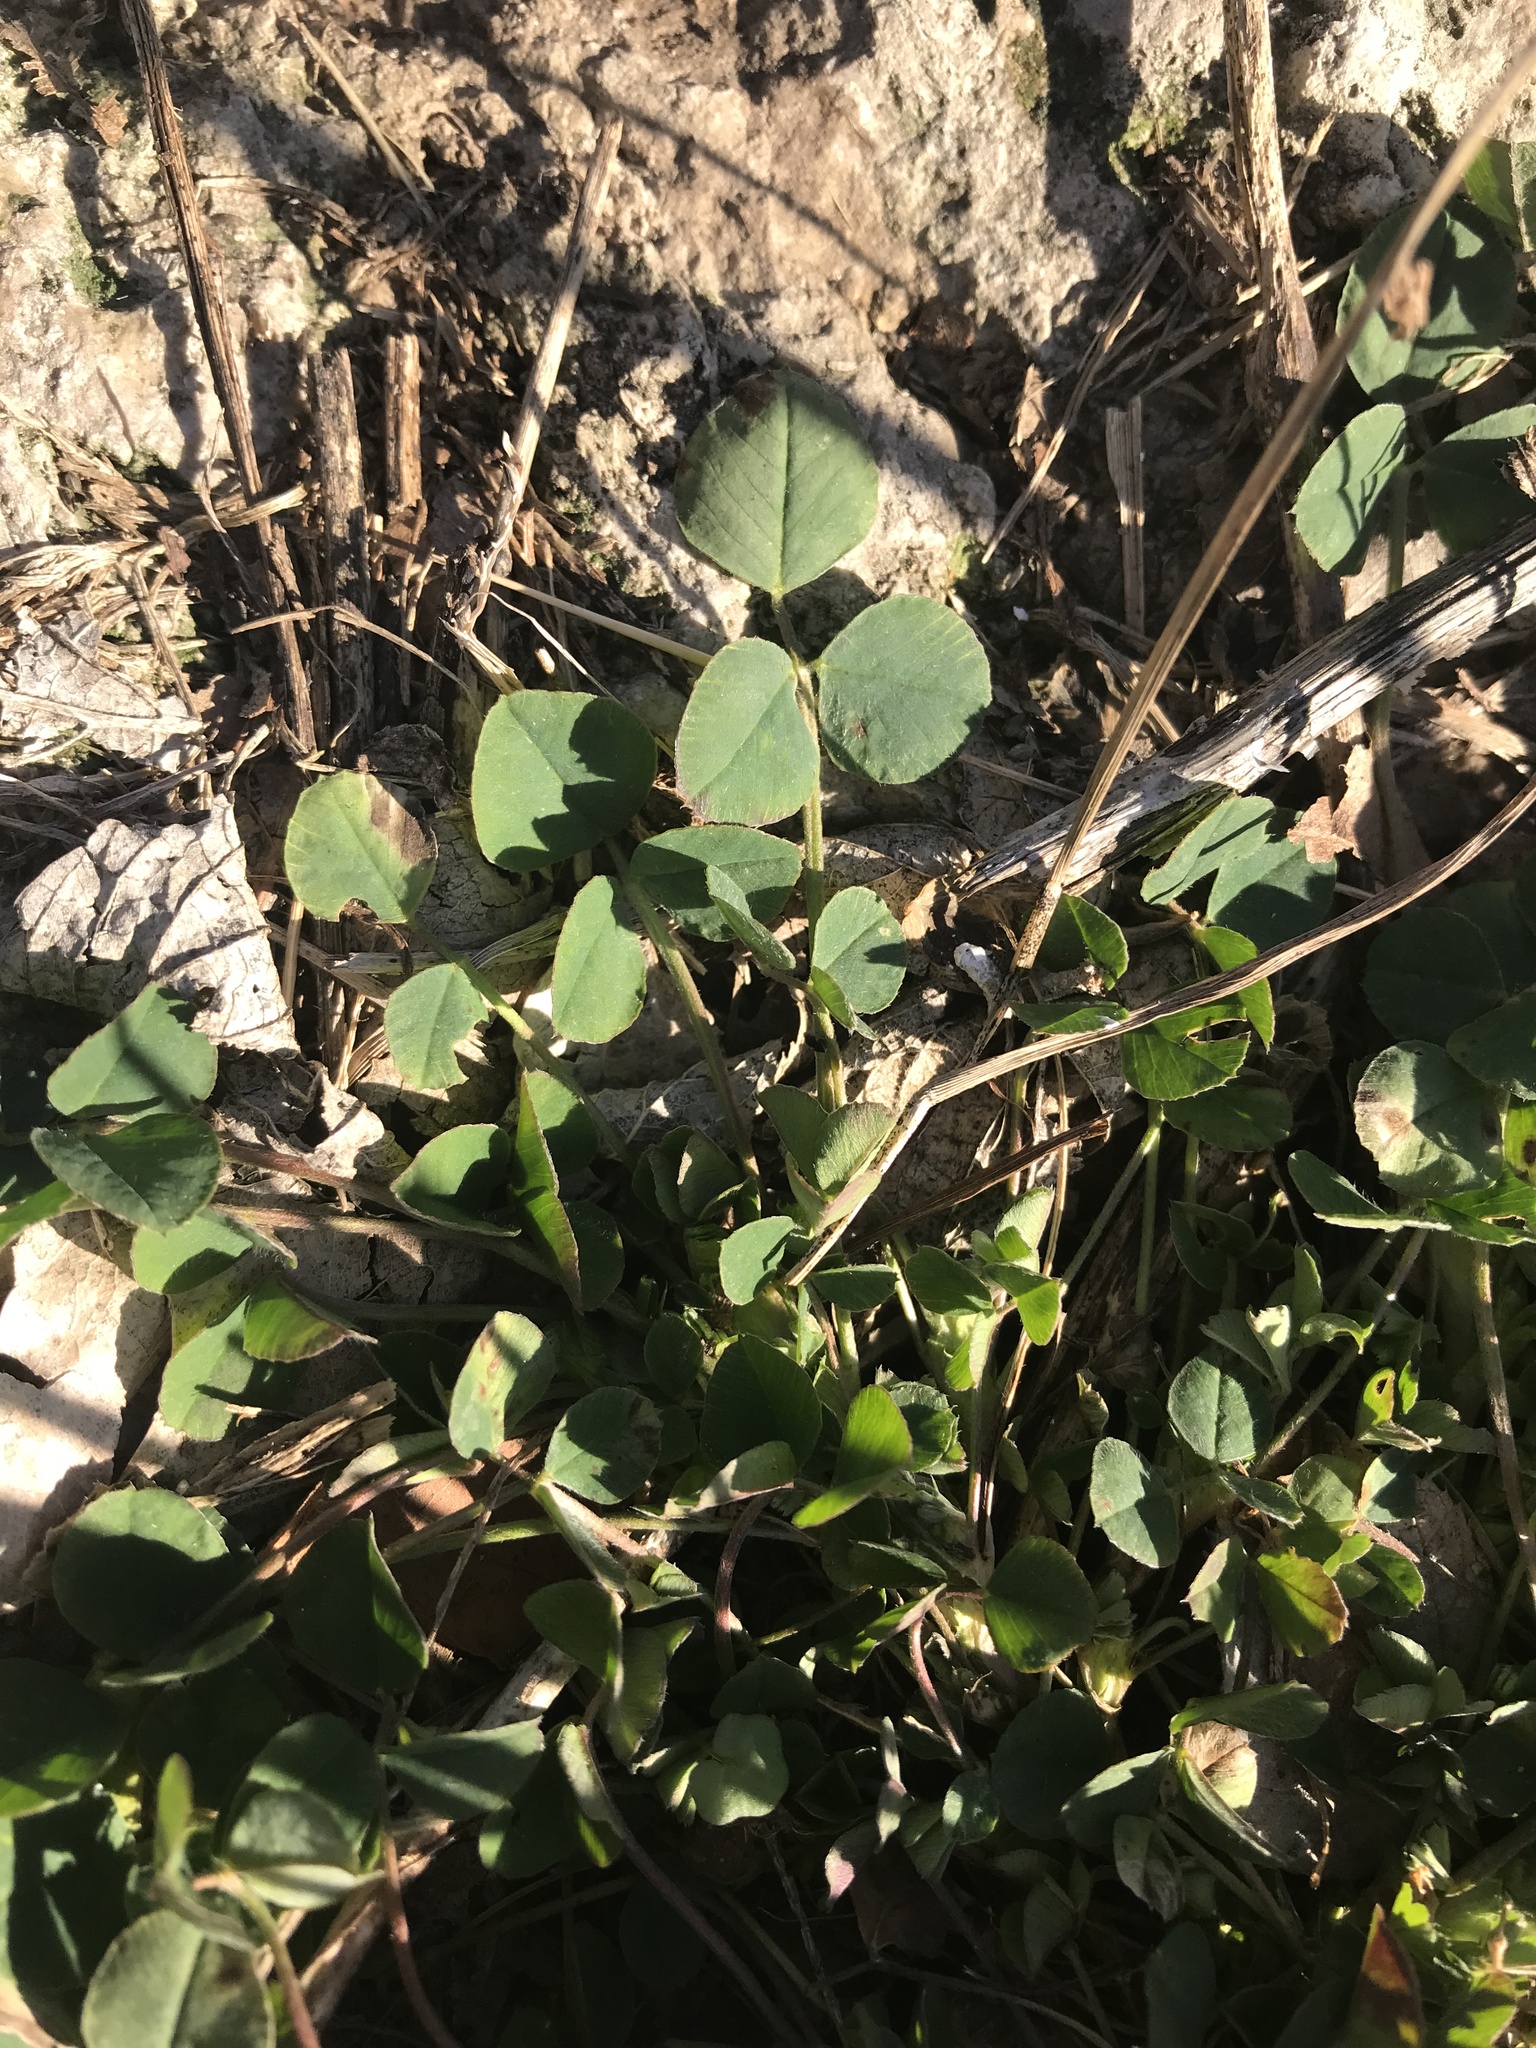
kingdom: Plantae
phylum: Tracheophyta
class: Magnoliopsida
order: Fabales
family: Fabaceae
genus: Medicago
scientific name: Medicago lupulina
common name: Black medick
